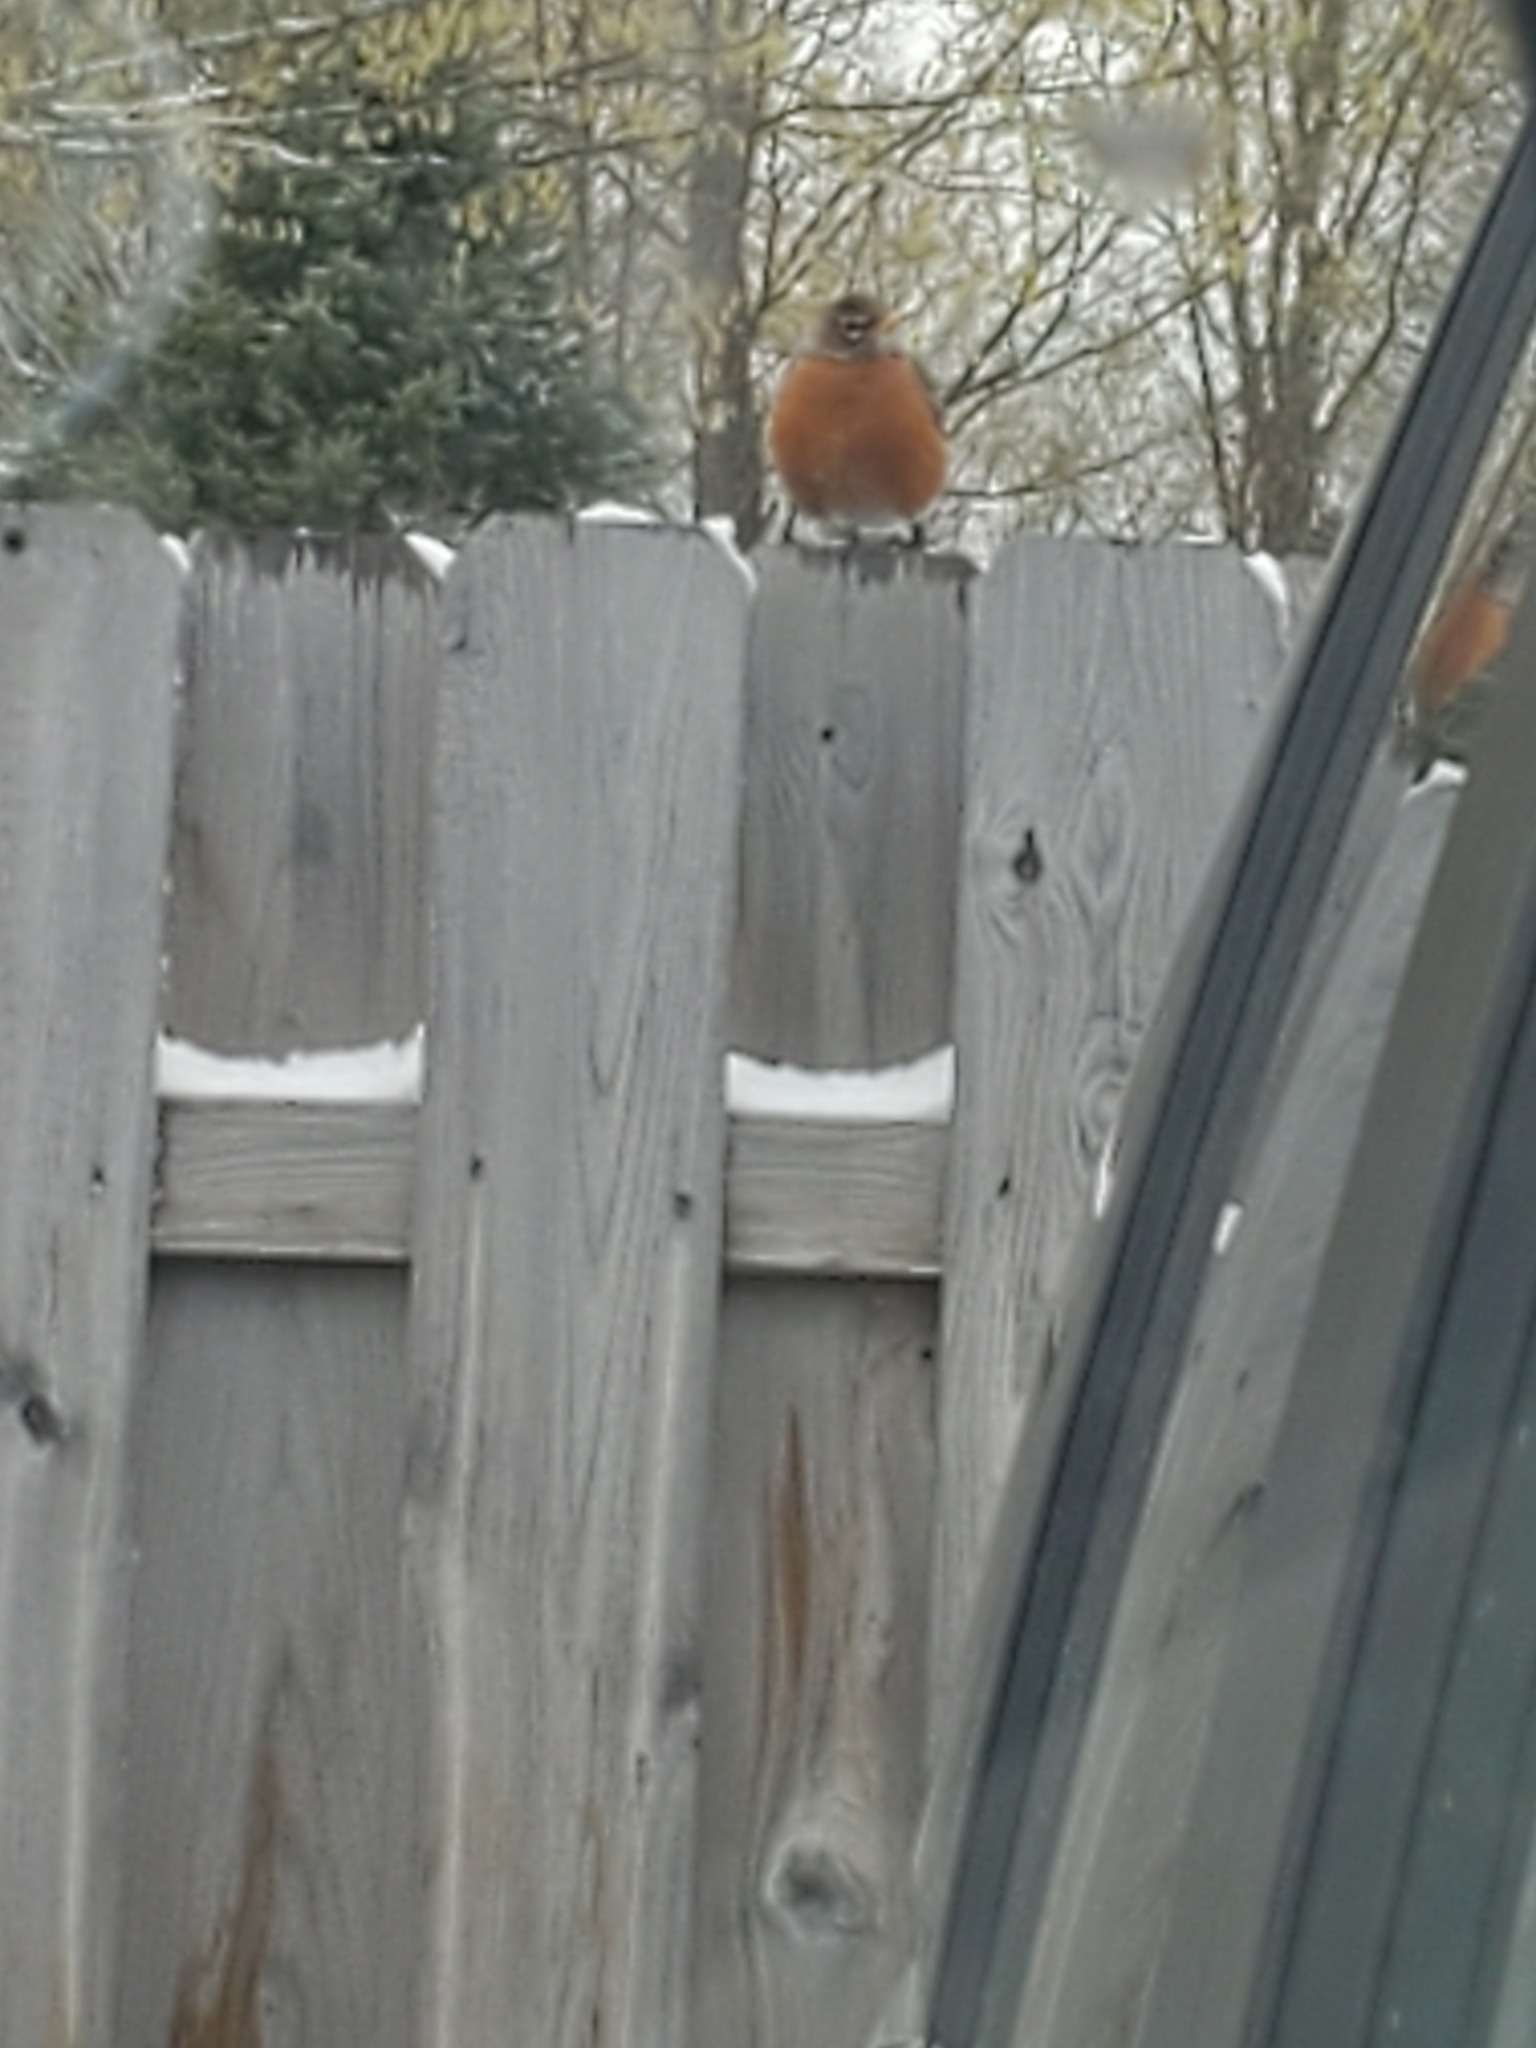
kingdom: Animalia
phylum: Chordata
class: Aves
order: Passeriformes
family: Turdidae
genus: Turdus
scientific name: Turdus migratorius
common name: American robin
